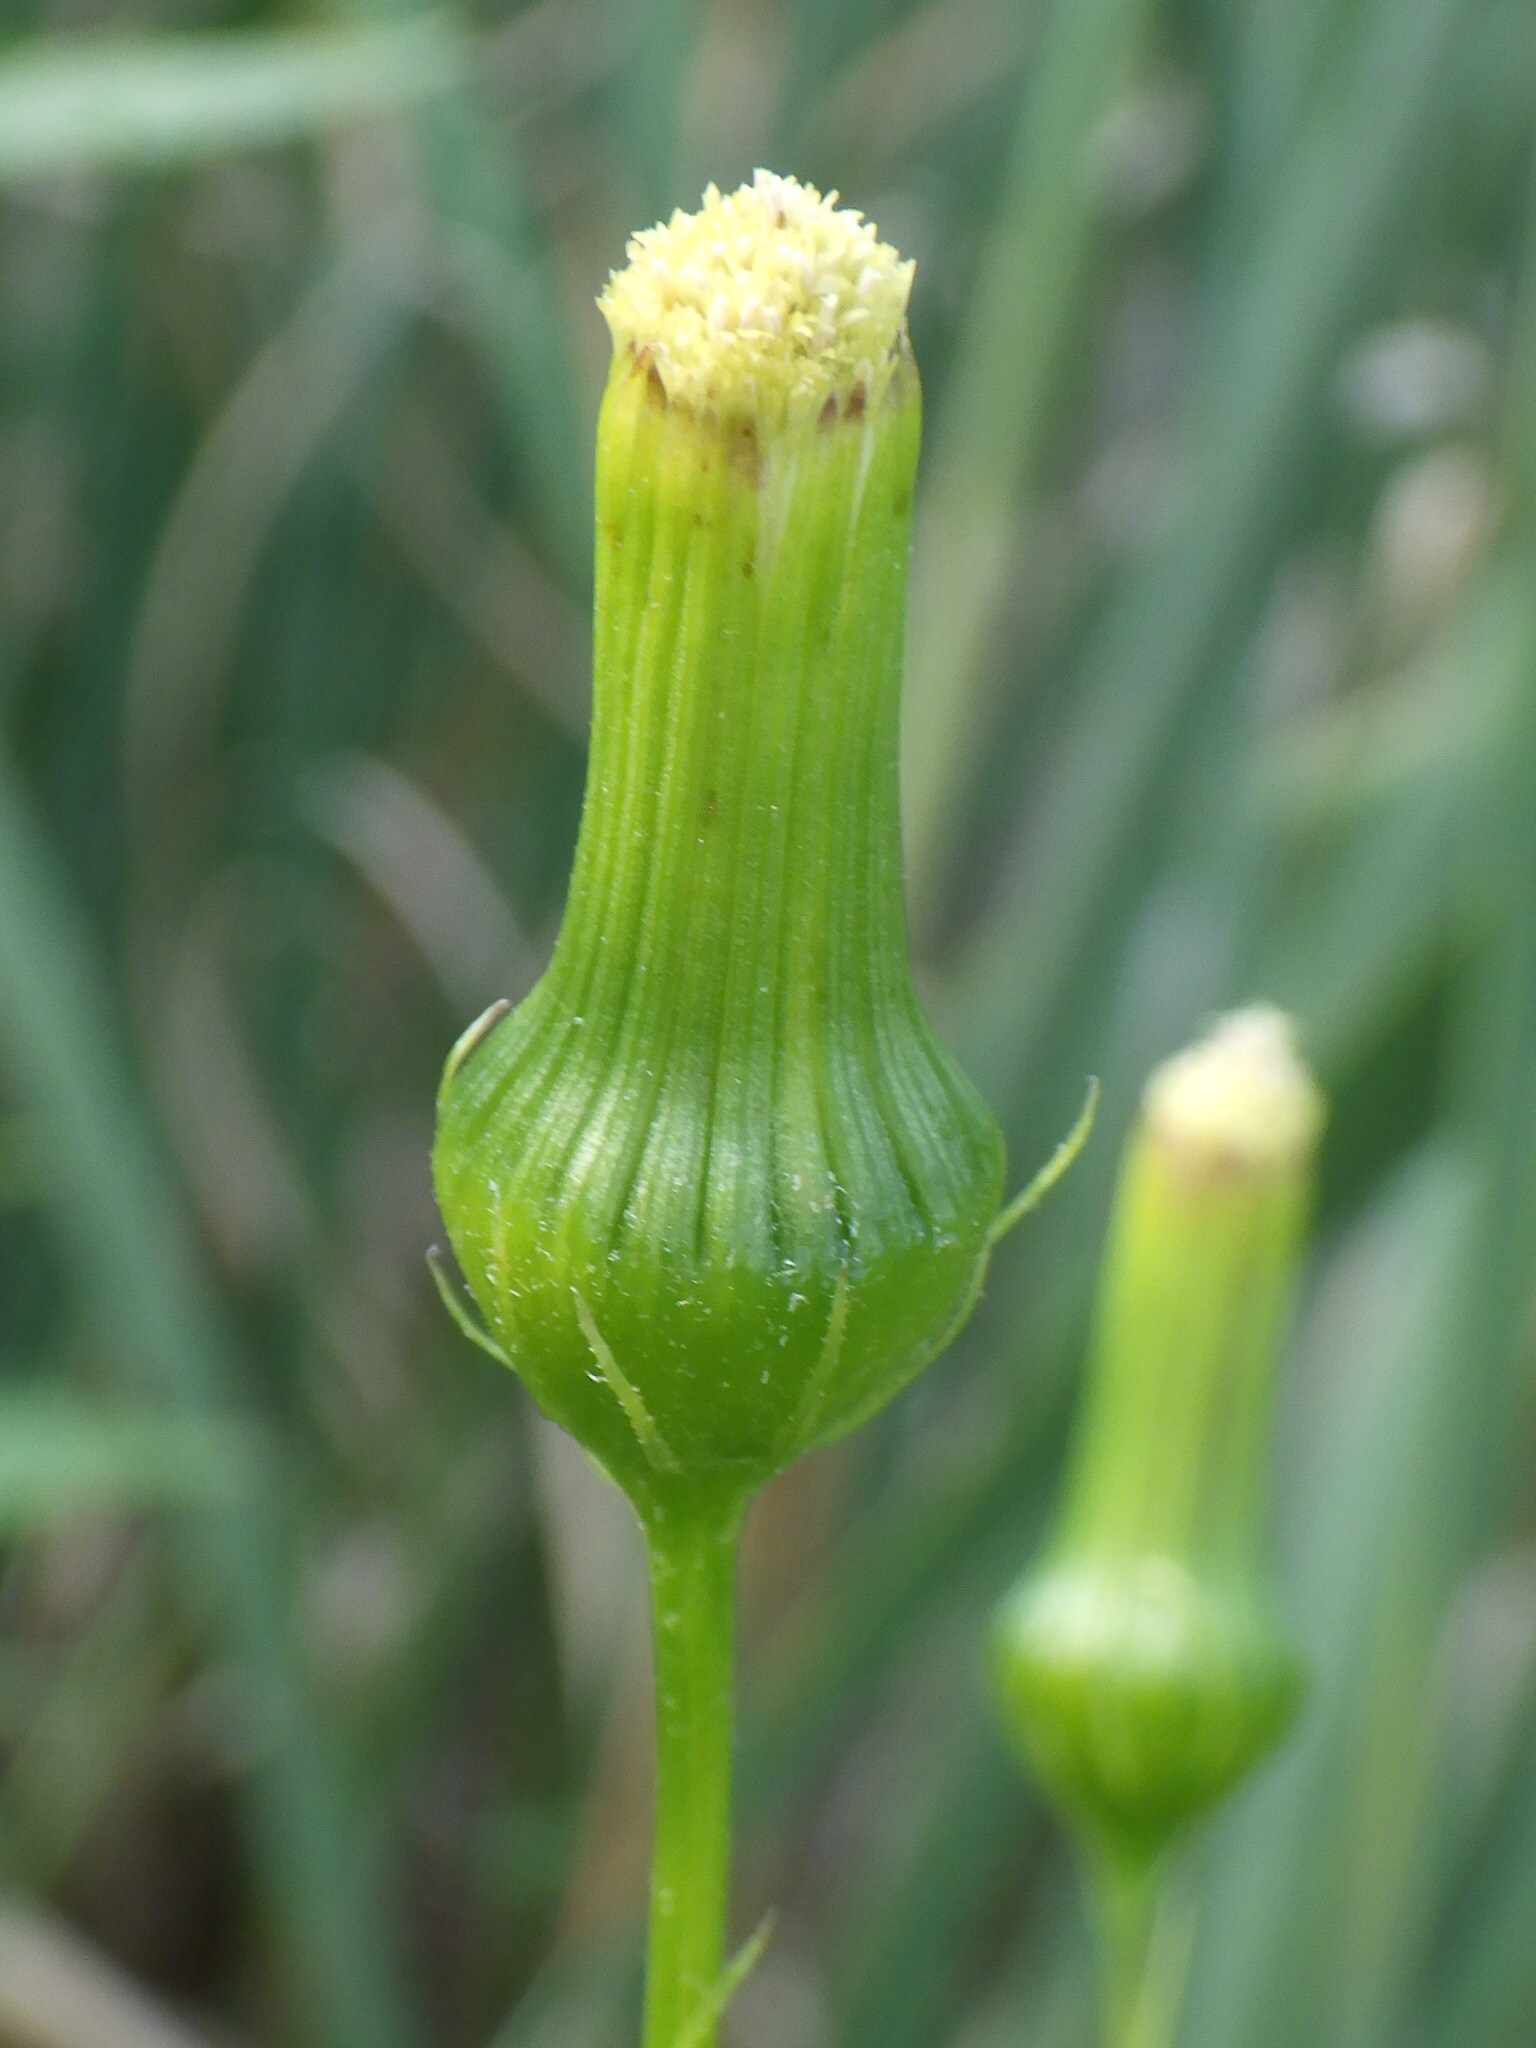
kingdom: Plantae
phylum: Tracheophyta
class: Magnoliopsida
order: Asterales
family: Asteraceae
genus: Erechtites
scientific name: Erechtites hieraciifolius
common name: American burnweed
